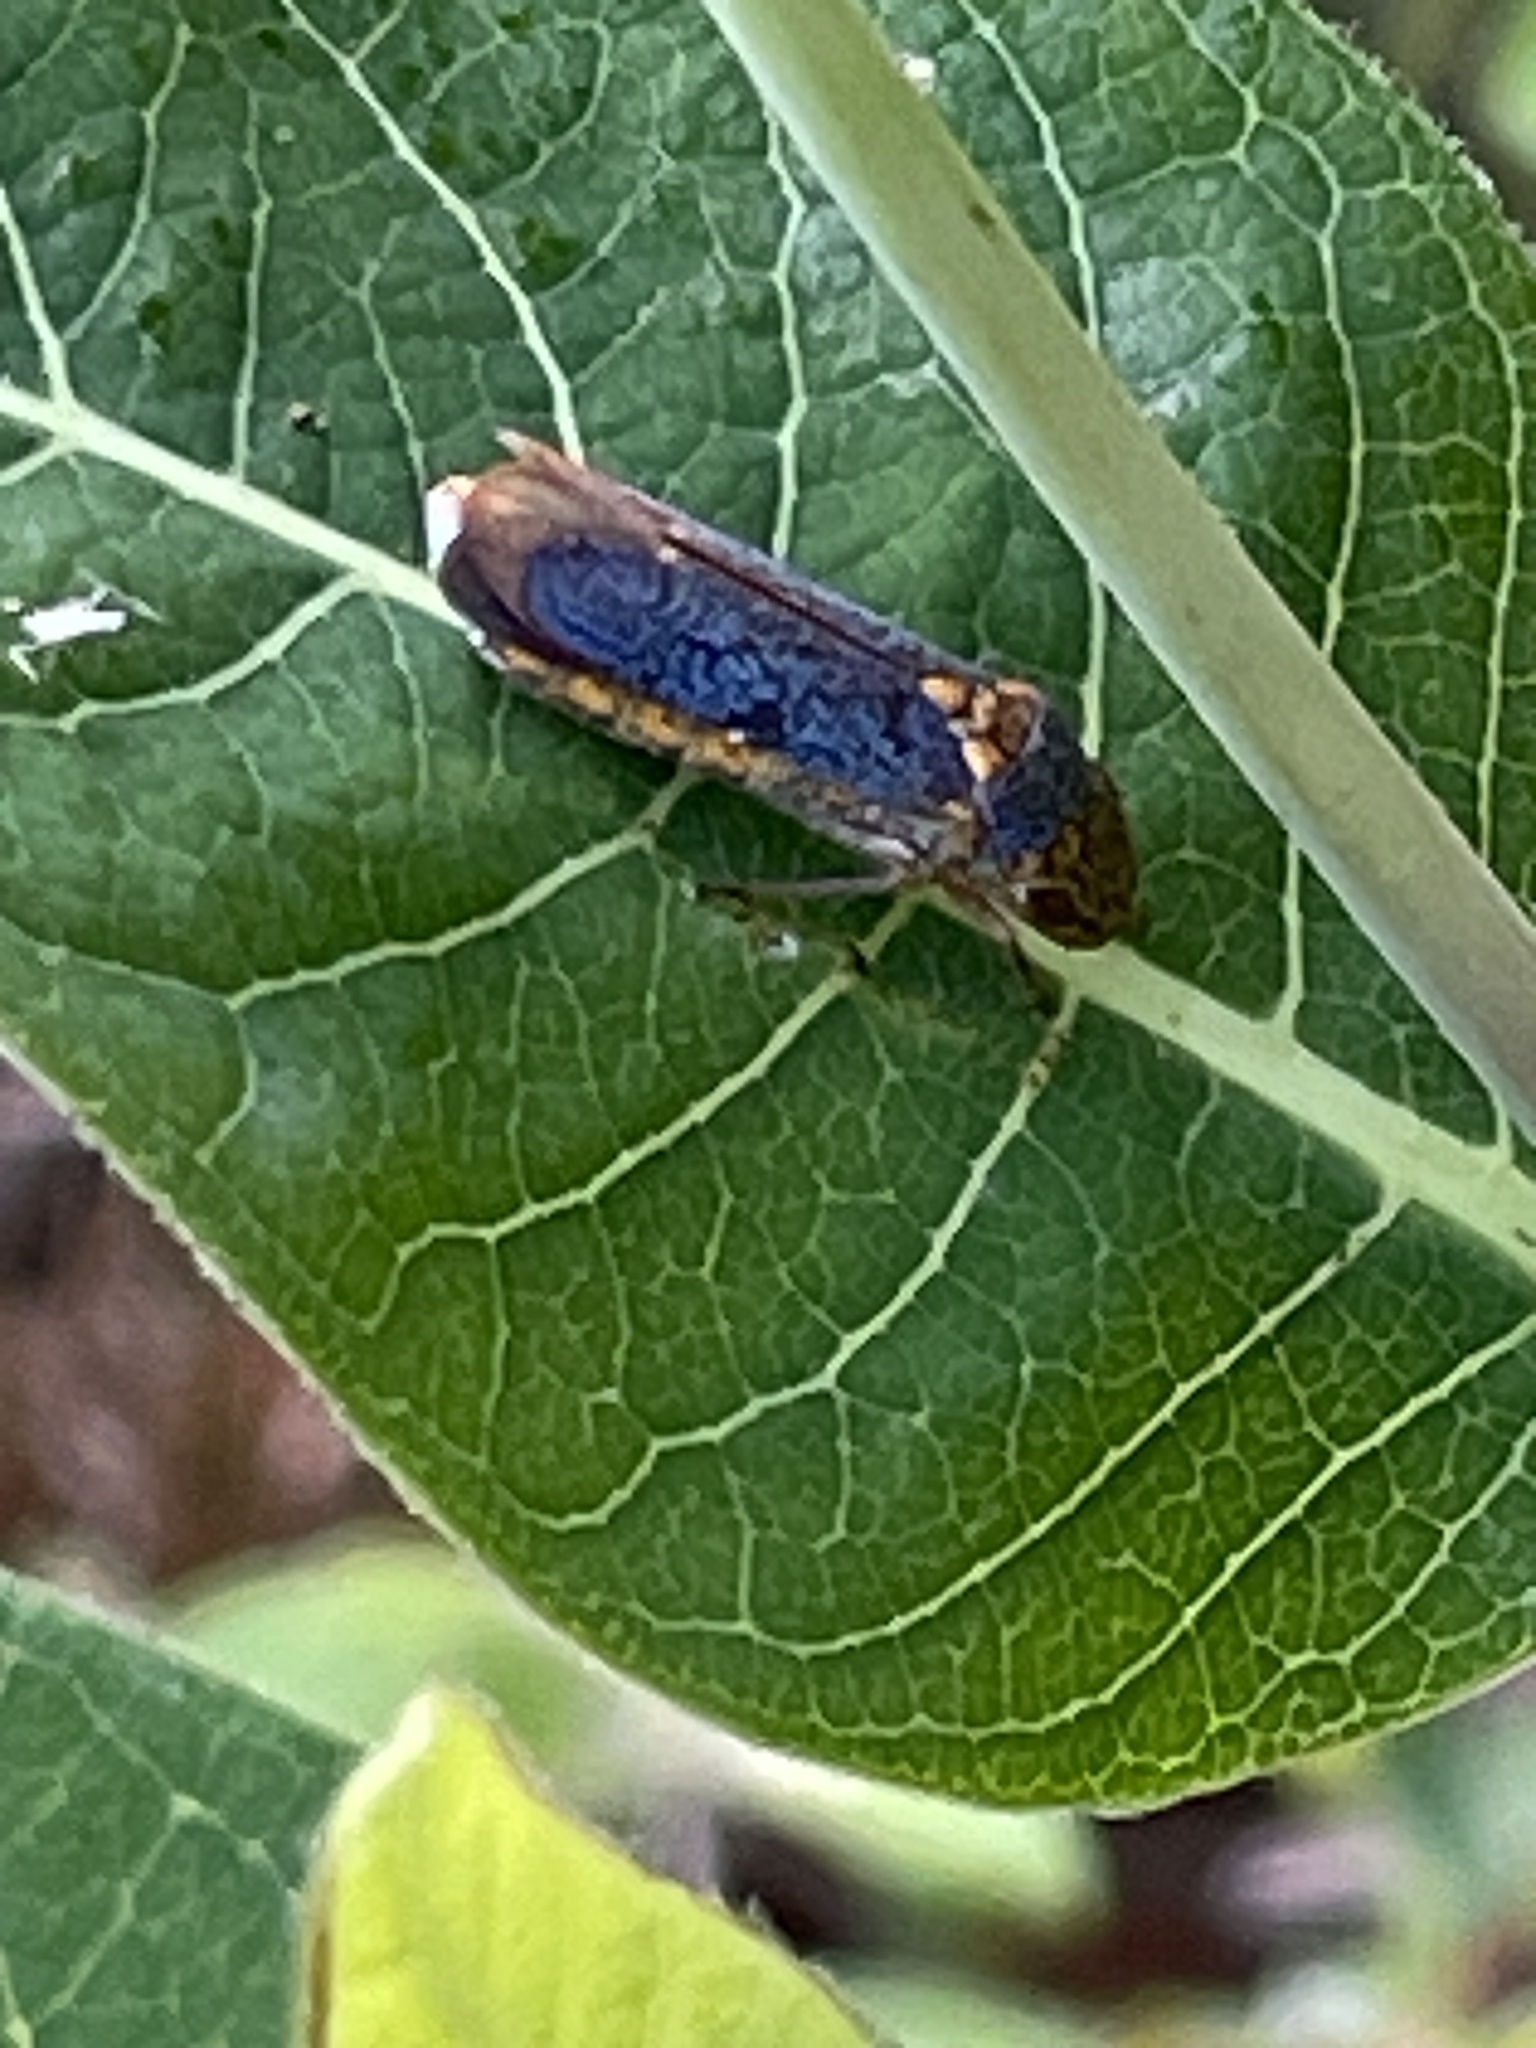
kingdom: Animalia
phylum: Arthropoda
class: Insecta
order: Hemiptera
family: Cicadellidae
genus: Oncometopia
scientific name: Oncometopia orbona
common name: Broad-headed sharpshooter
